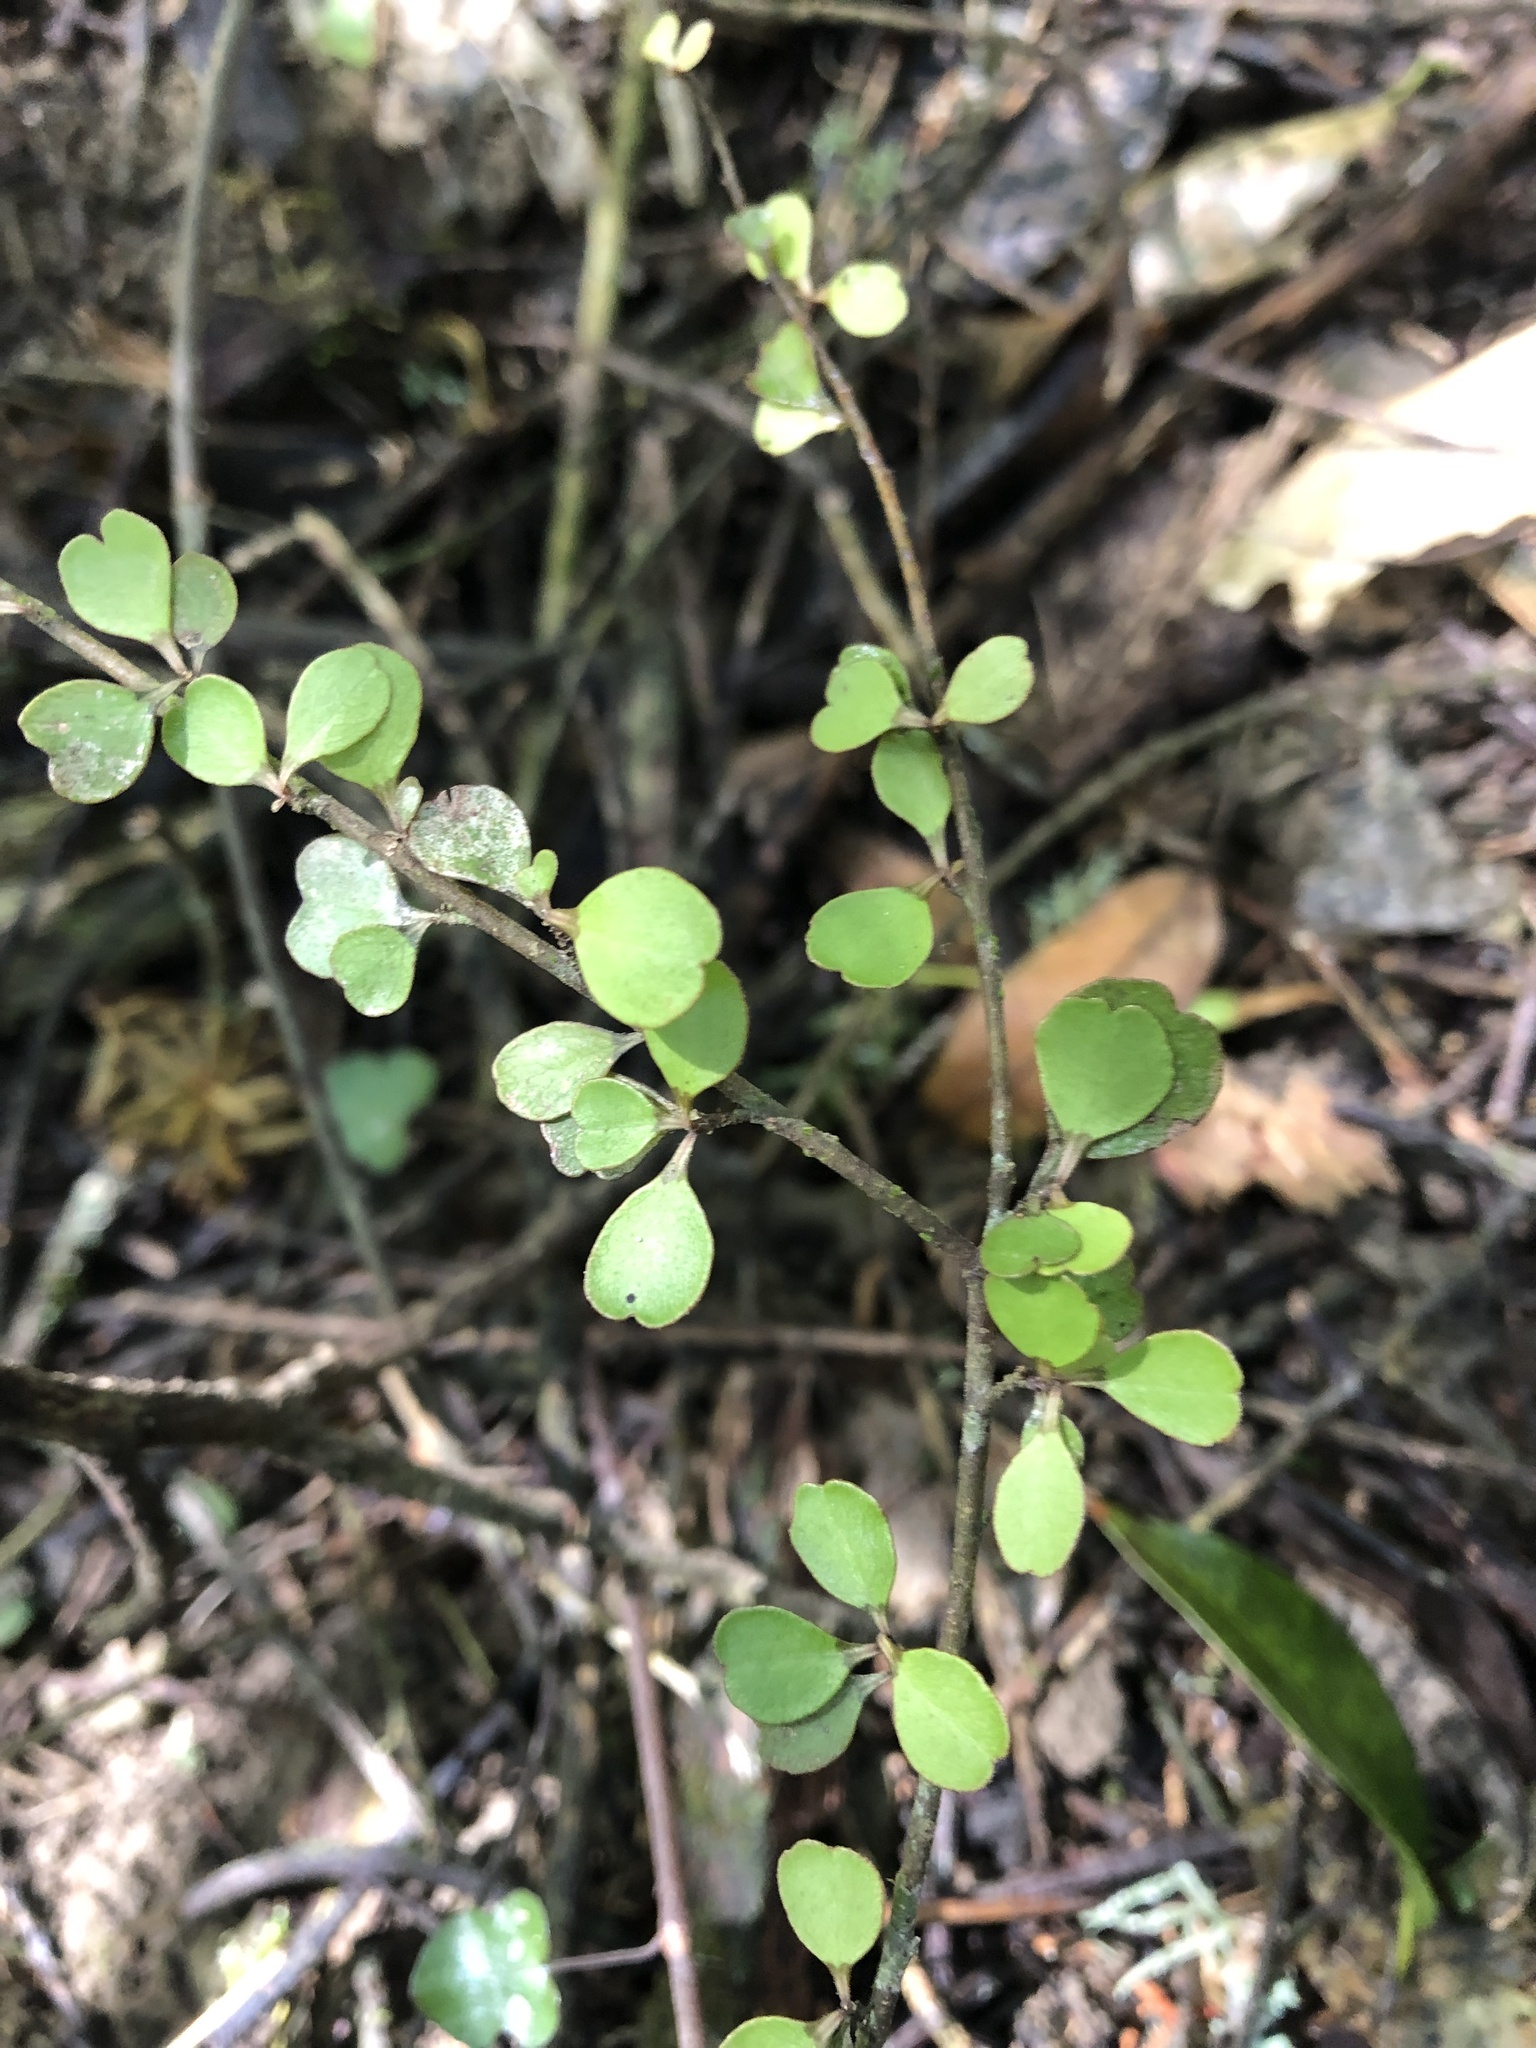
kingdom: Plantae
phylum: Tracheophyta
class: Magnoliopsida
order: Ericales
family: Primulaceae
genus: Myrsine
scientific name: Myrsine divaricata
